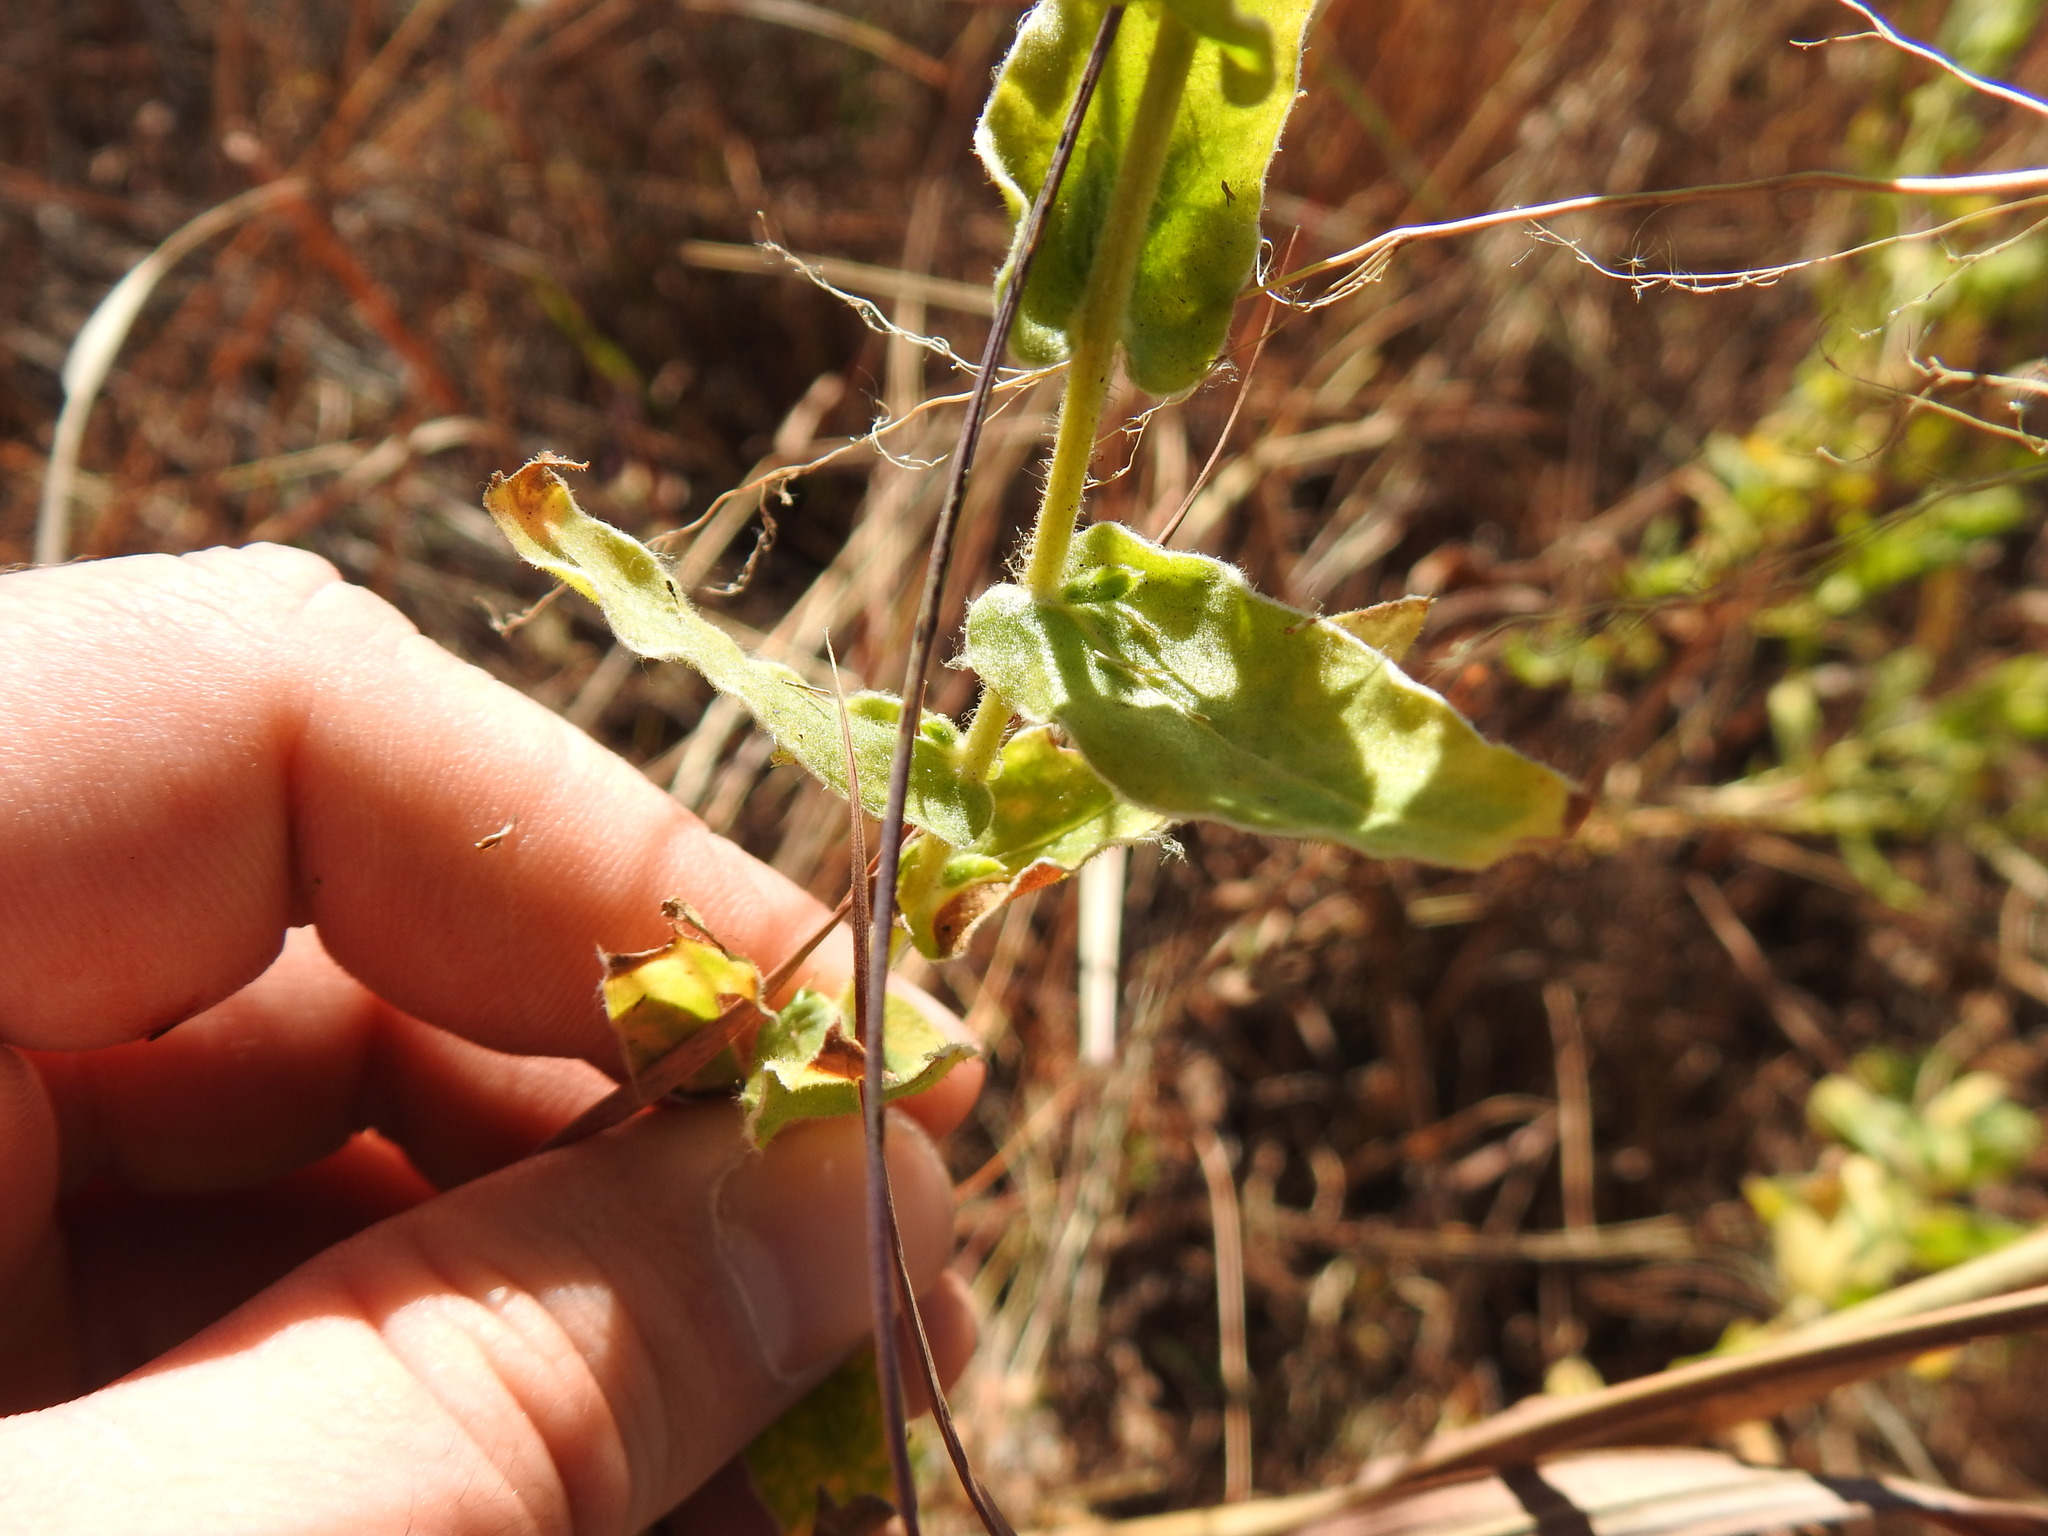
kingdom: Plantae
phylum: Tracheophyta
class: Magnoliopsida
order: Asterales
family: Asteraceae
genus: Helichrysum
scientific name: Helichrysum setosum
